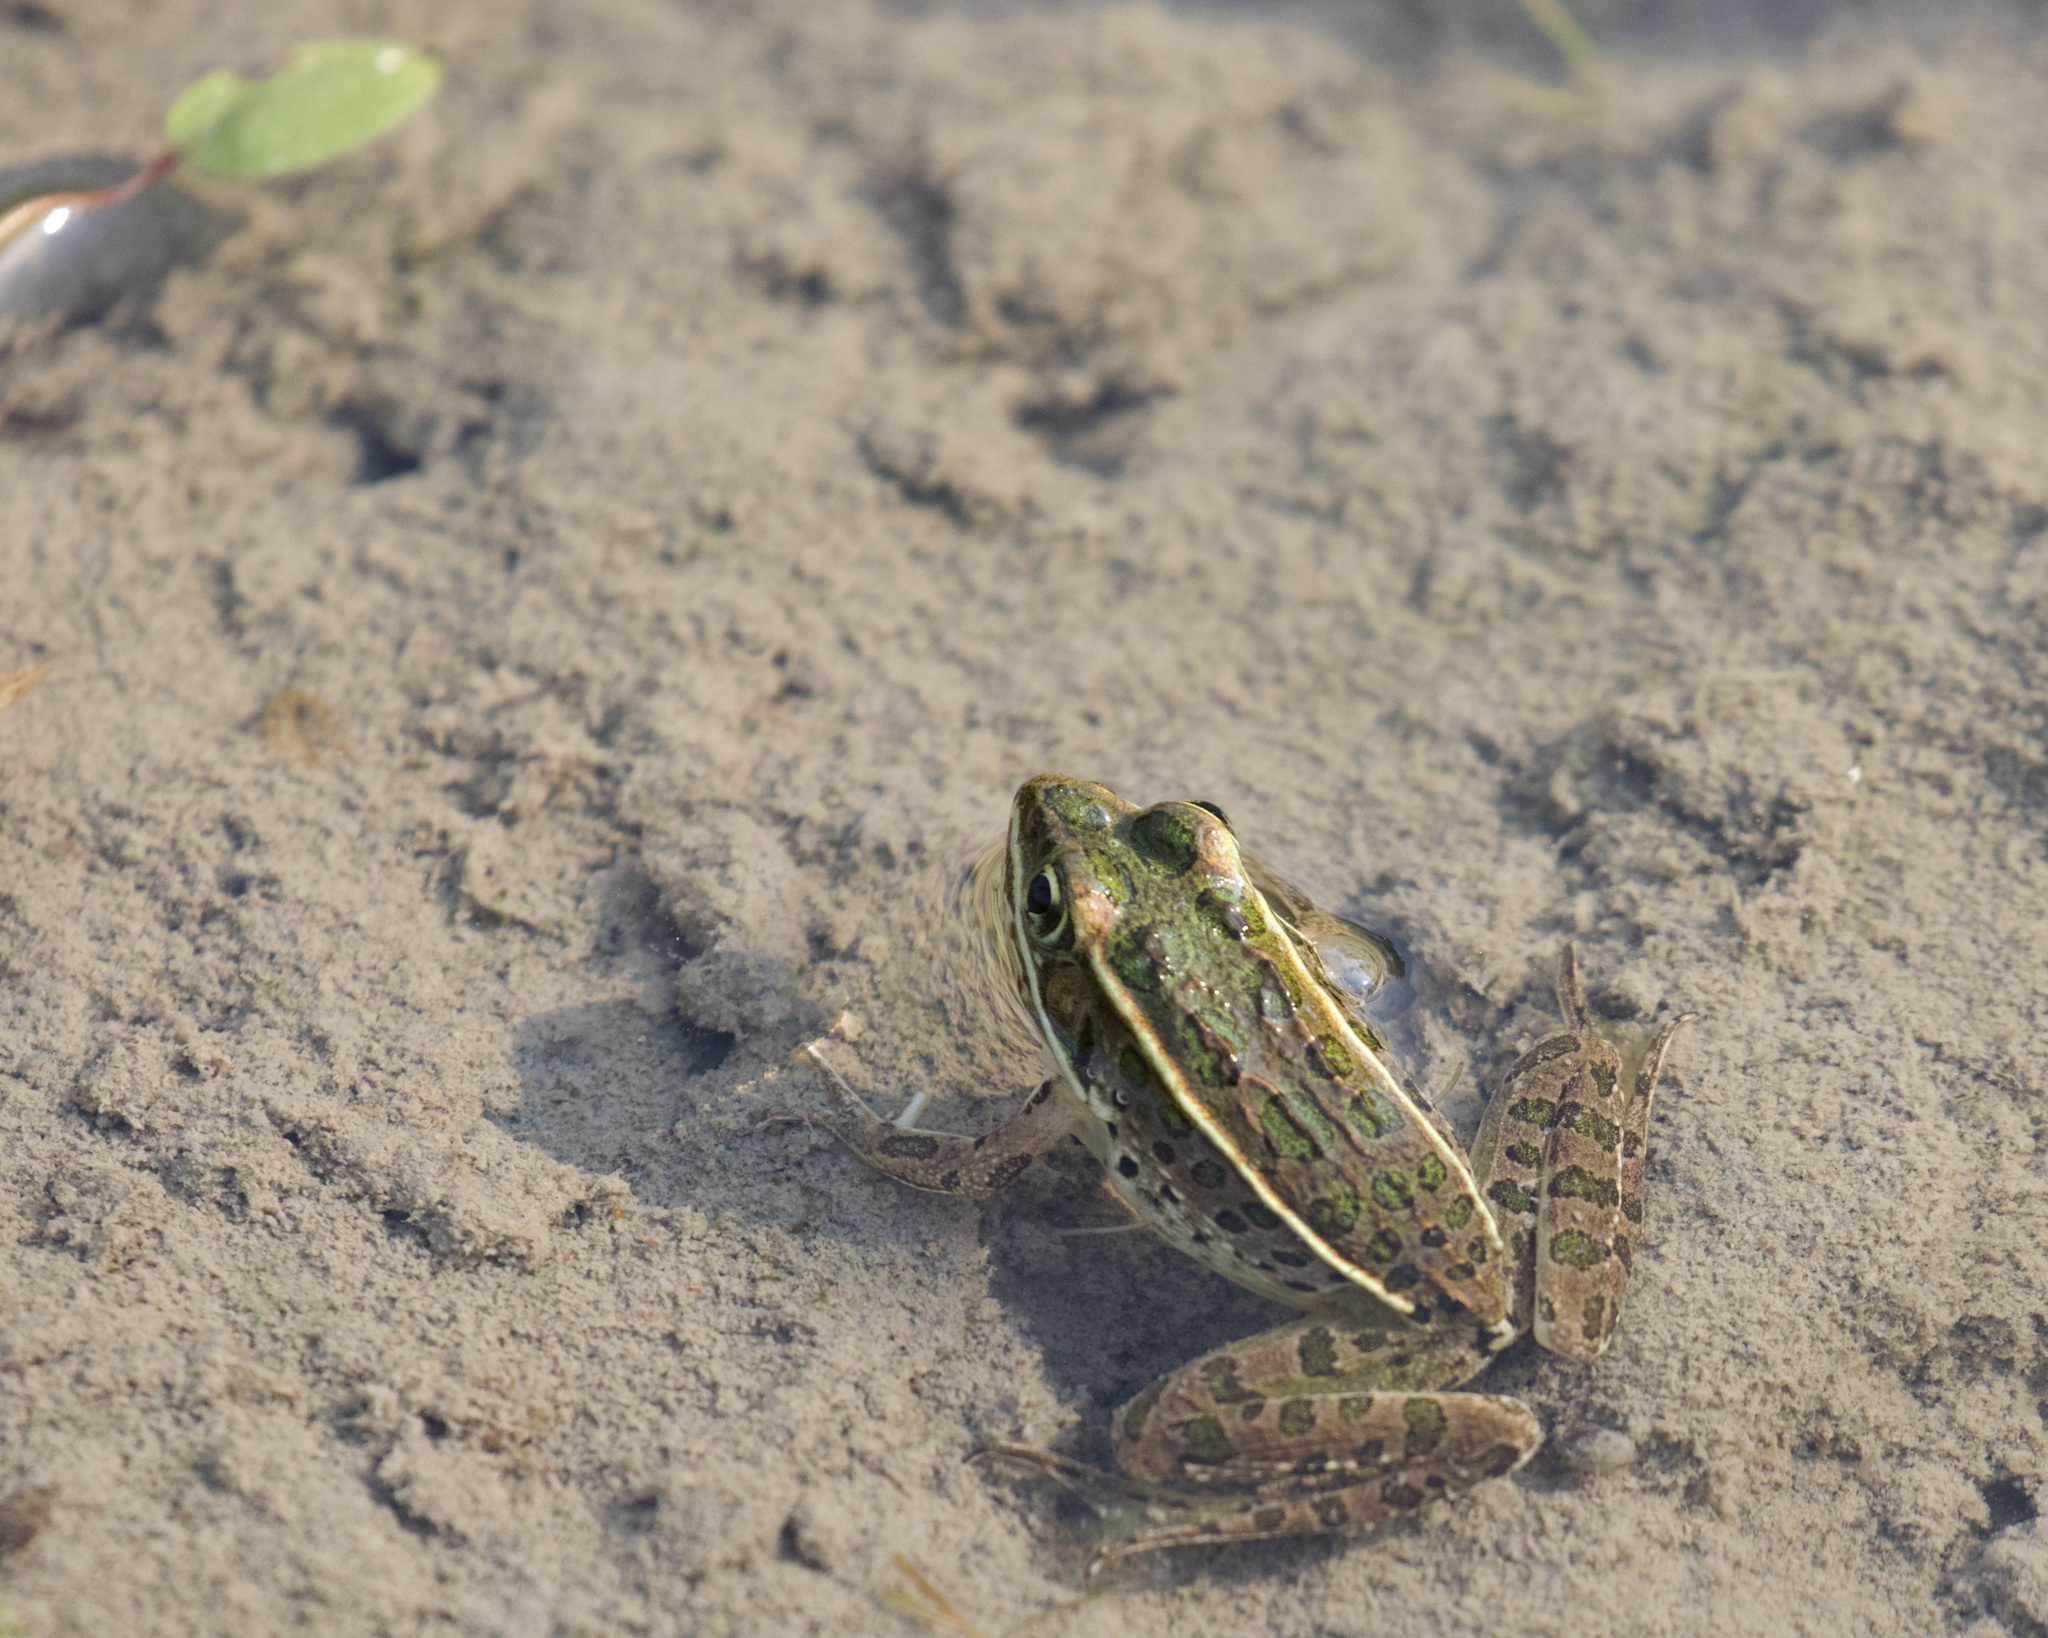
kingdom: Animalia
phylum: Chordata
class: Amphibia
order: Anura
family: Ranidae
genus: Lithobates
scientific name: Lithobates pipiens
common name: Northern leopard frog
